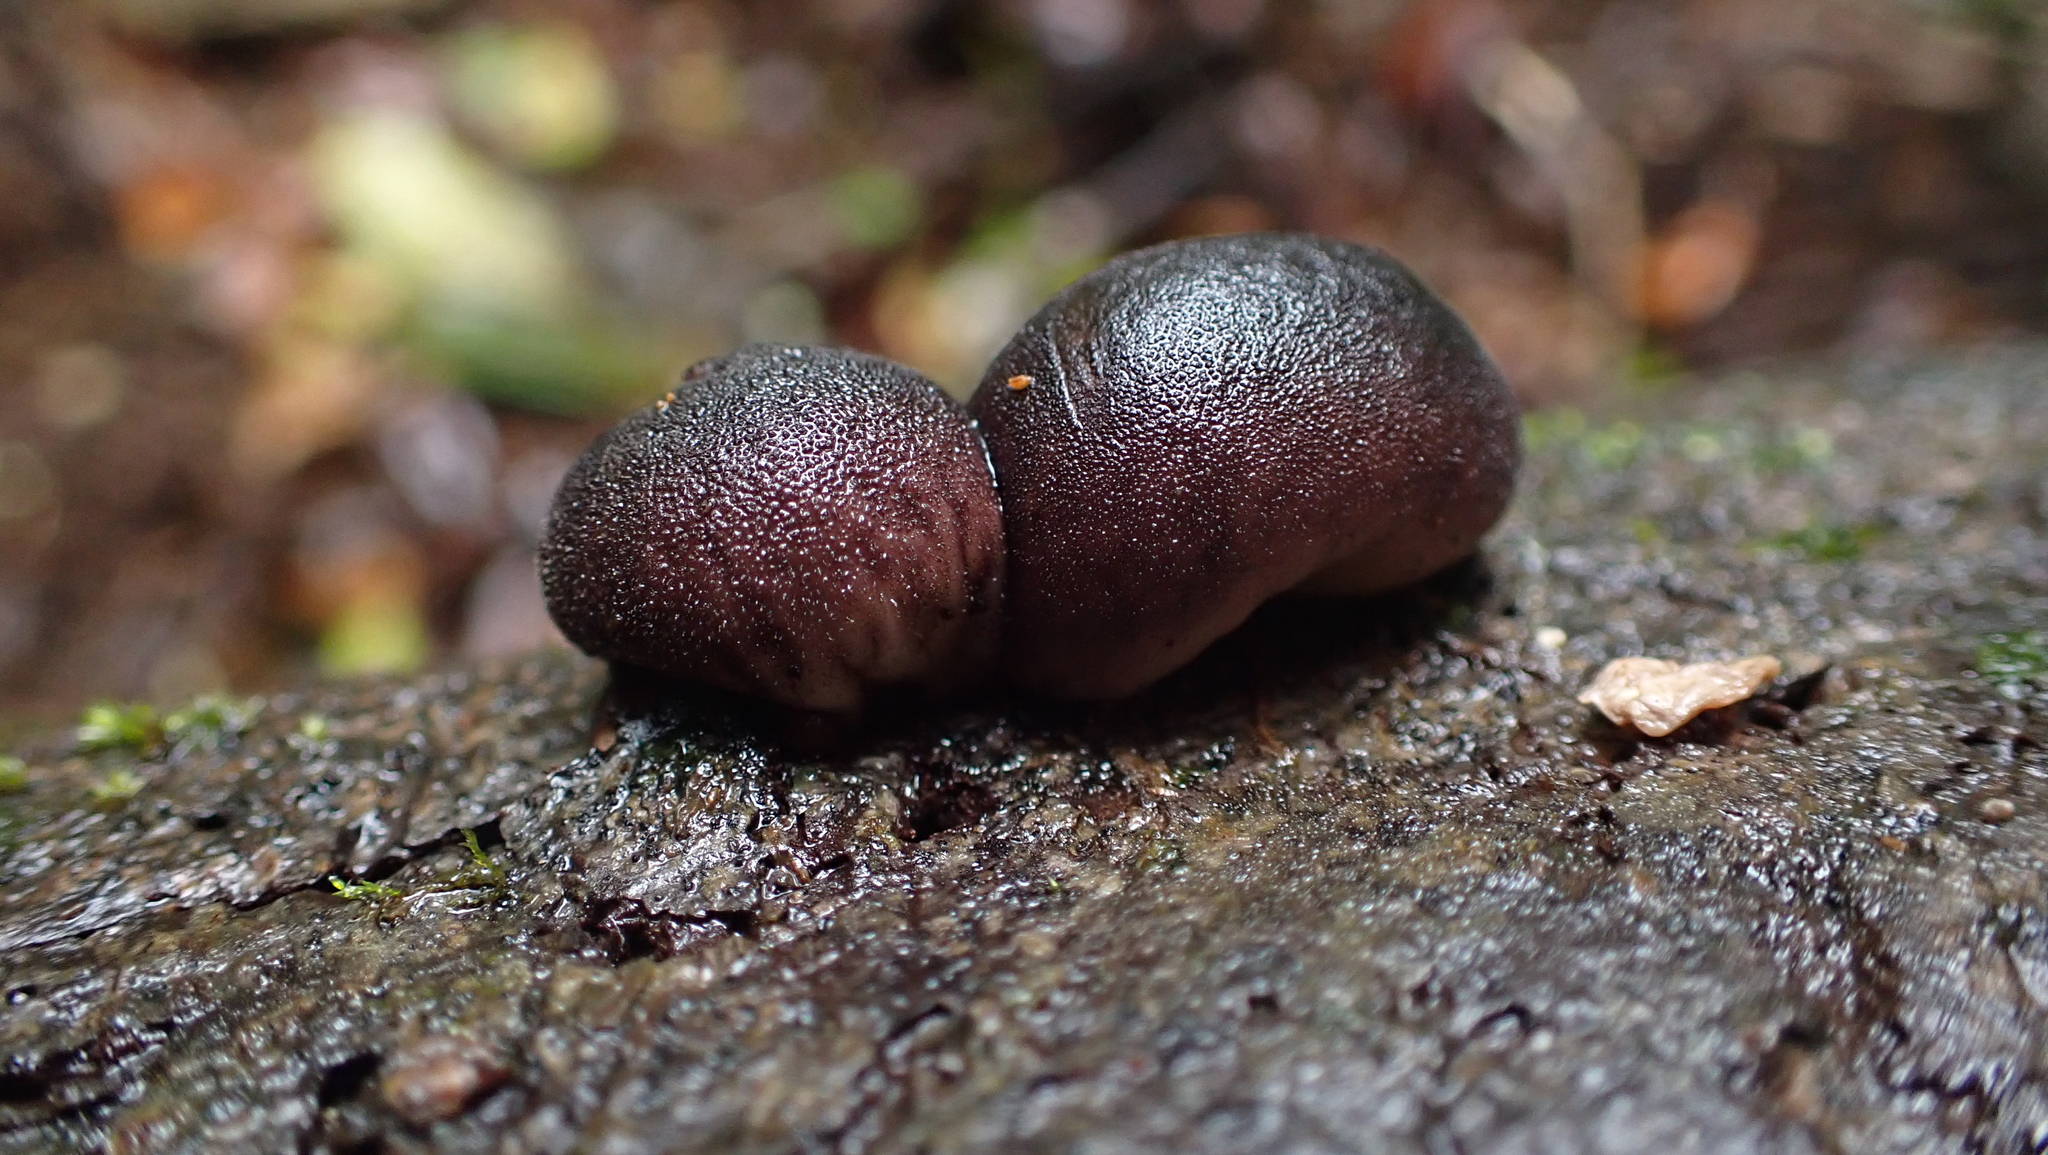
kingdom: Fungi
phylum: Basidiomycota
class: Agaricomycetes
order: Agaricales
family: Lycoperdaceae
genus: Lycoperdon
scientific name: Lycoperdon fuligineum
